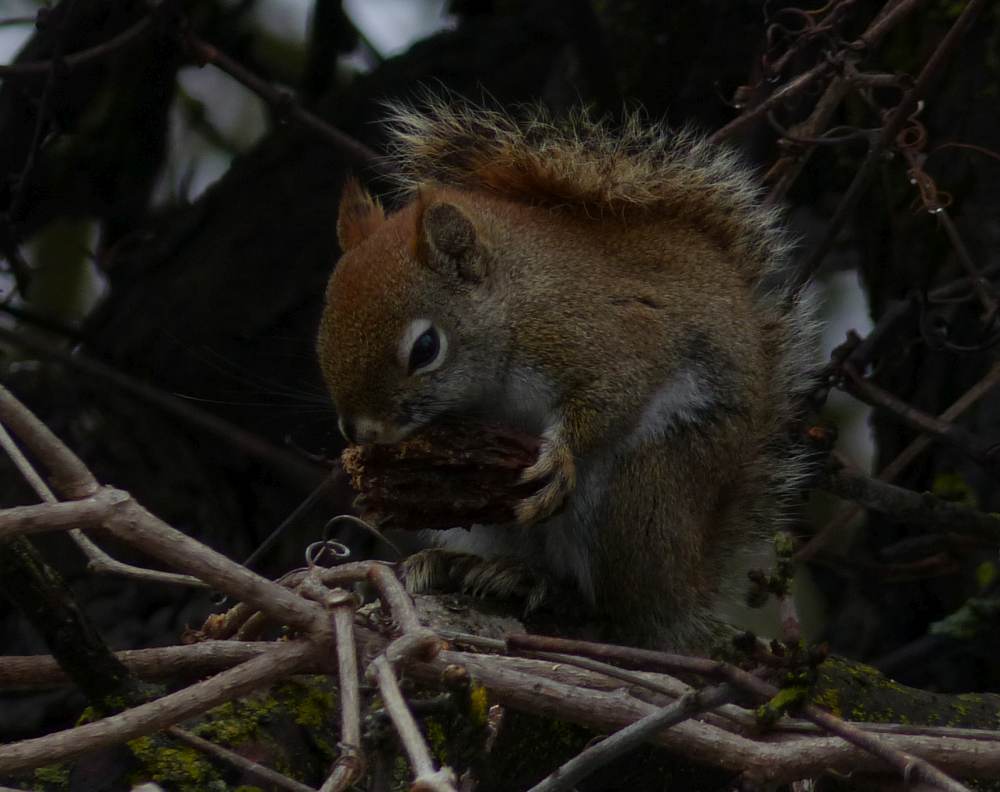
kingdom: Animalia
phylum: Chordata
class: Mammalia
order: Rodentia
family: Sciuridae
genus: Tamiasciurus
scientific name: Tamiasciurus hudsonicus
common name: Red squirrel
